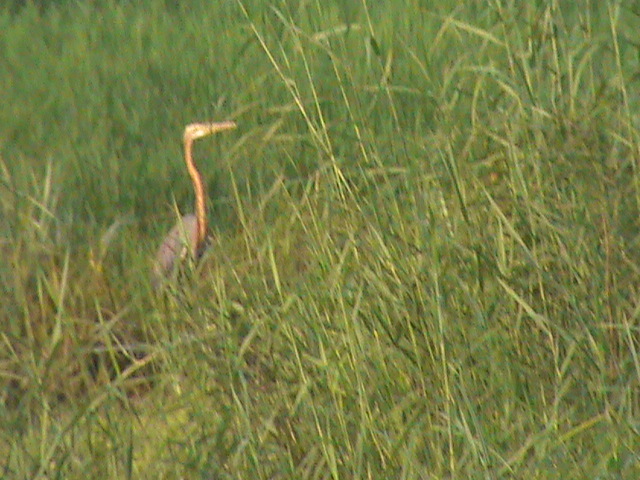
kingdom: Animalia
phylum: Chordata
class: Aves
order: Pelecaniformes
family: Ardeidae
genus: Ardea
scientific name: Ardea purpurea
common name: Purple heron
